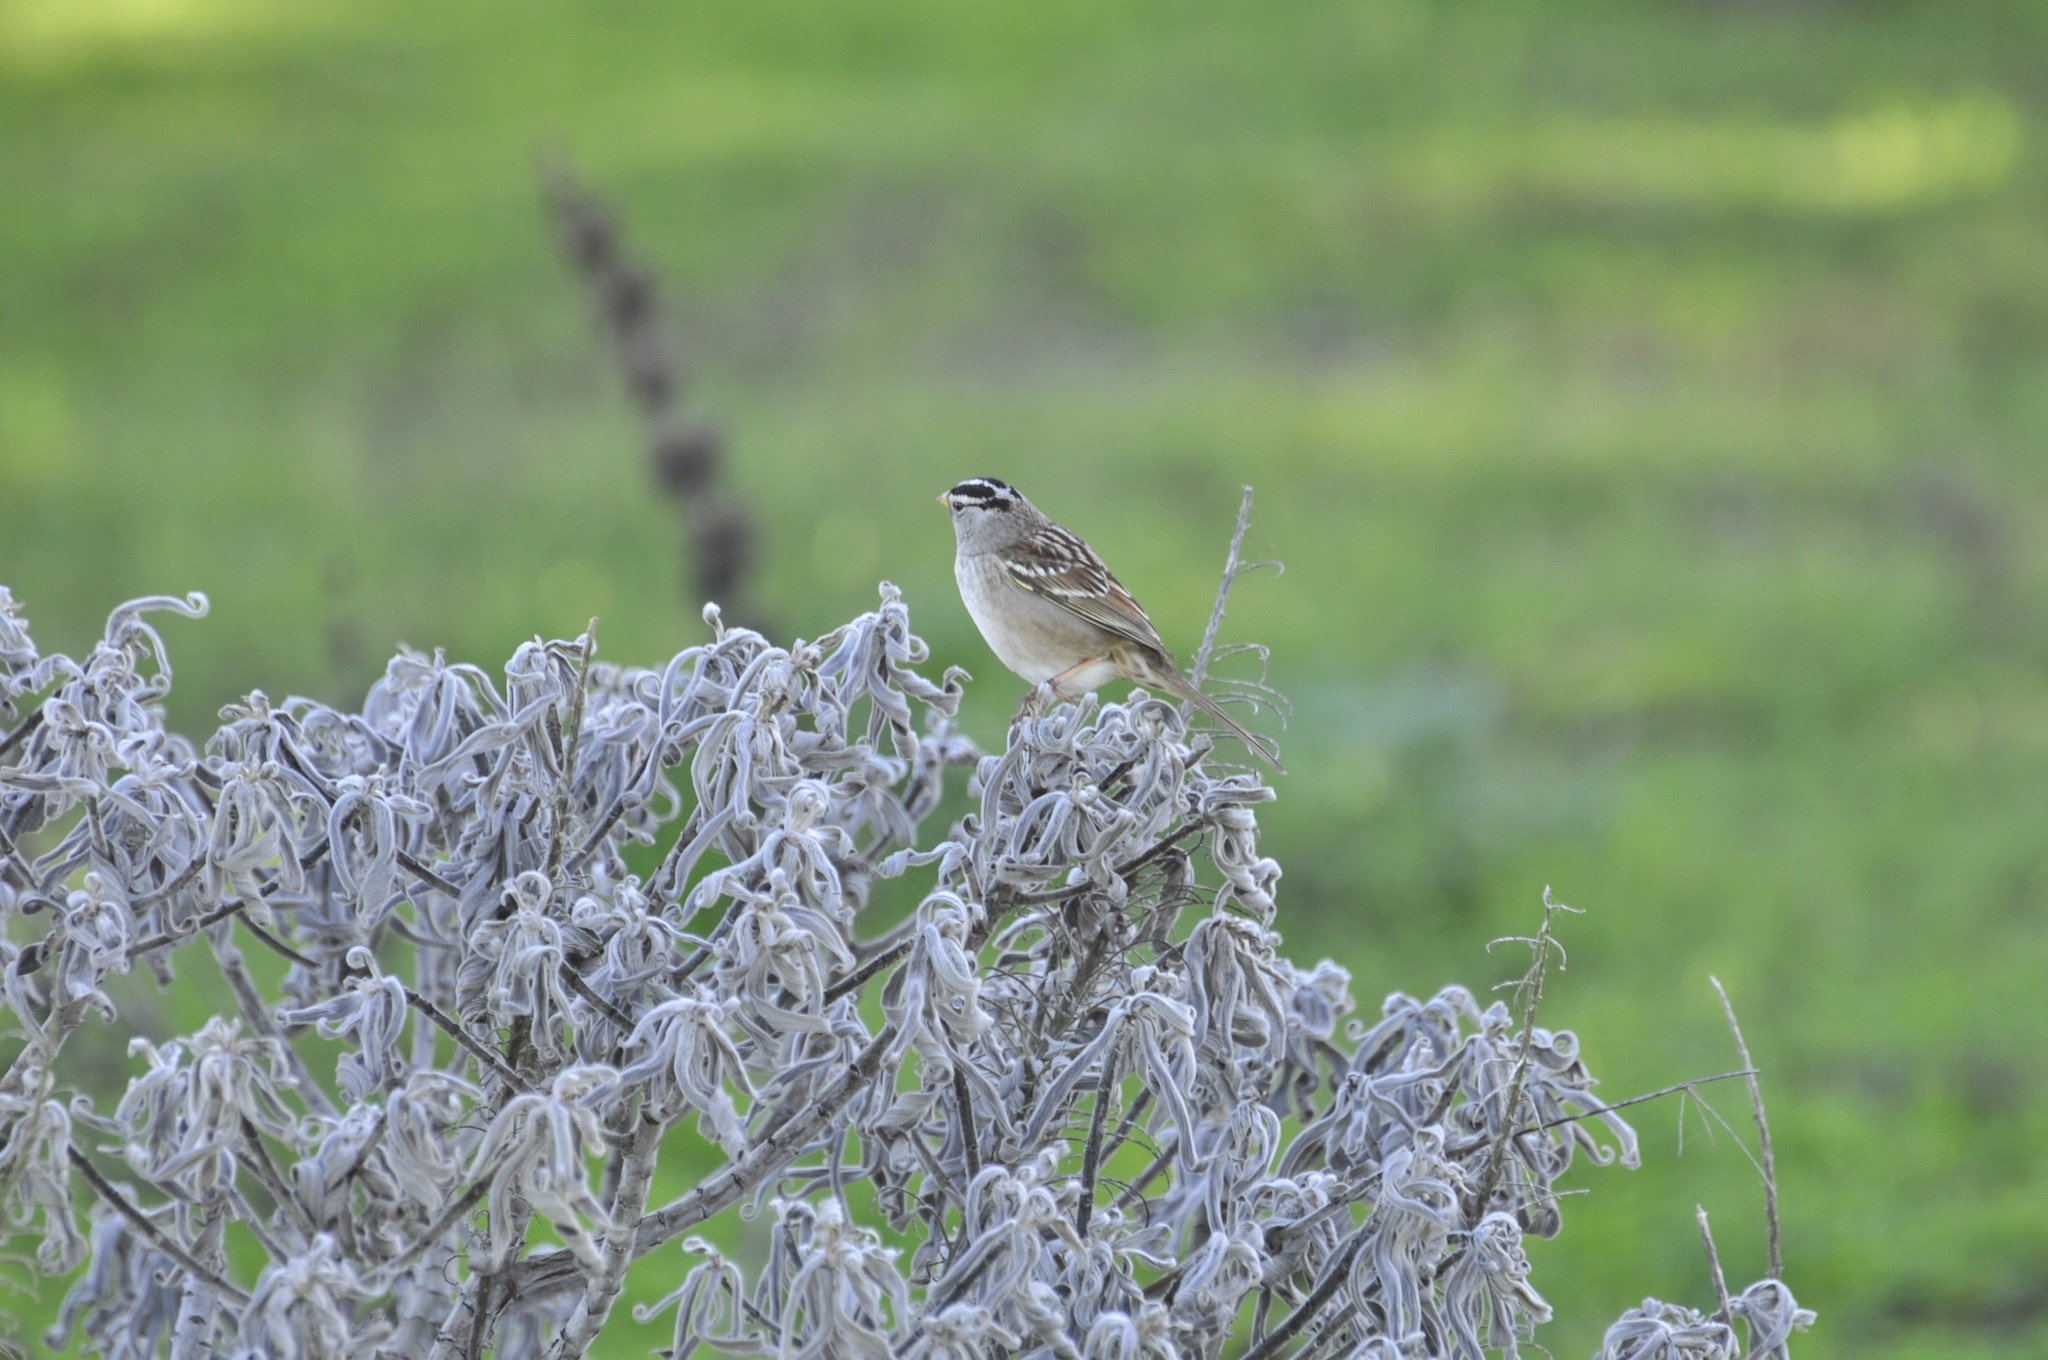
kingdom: Animalia
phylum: Chordata
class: Aves
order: Passeriformes
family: Passerellidae
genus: Zonotrichia
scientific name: Zonotrichia leucophrys
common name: White-crowned sparrow
